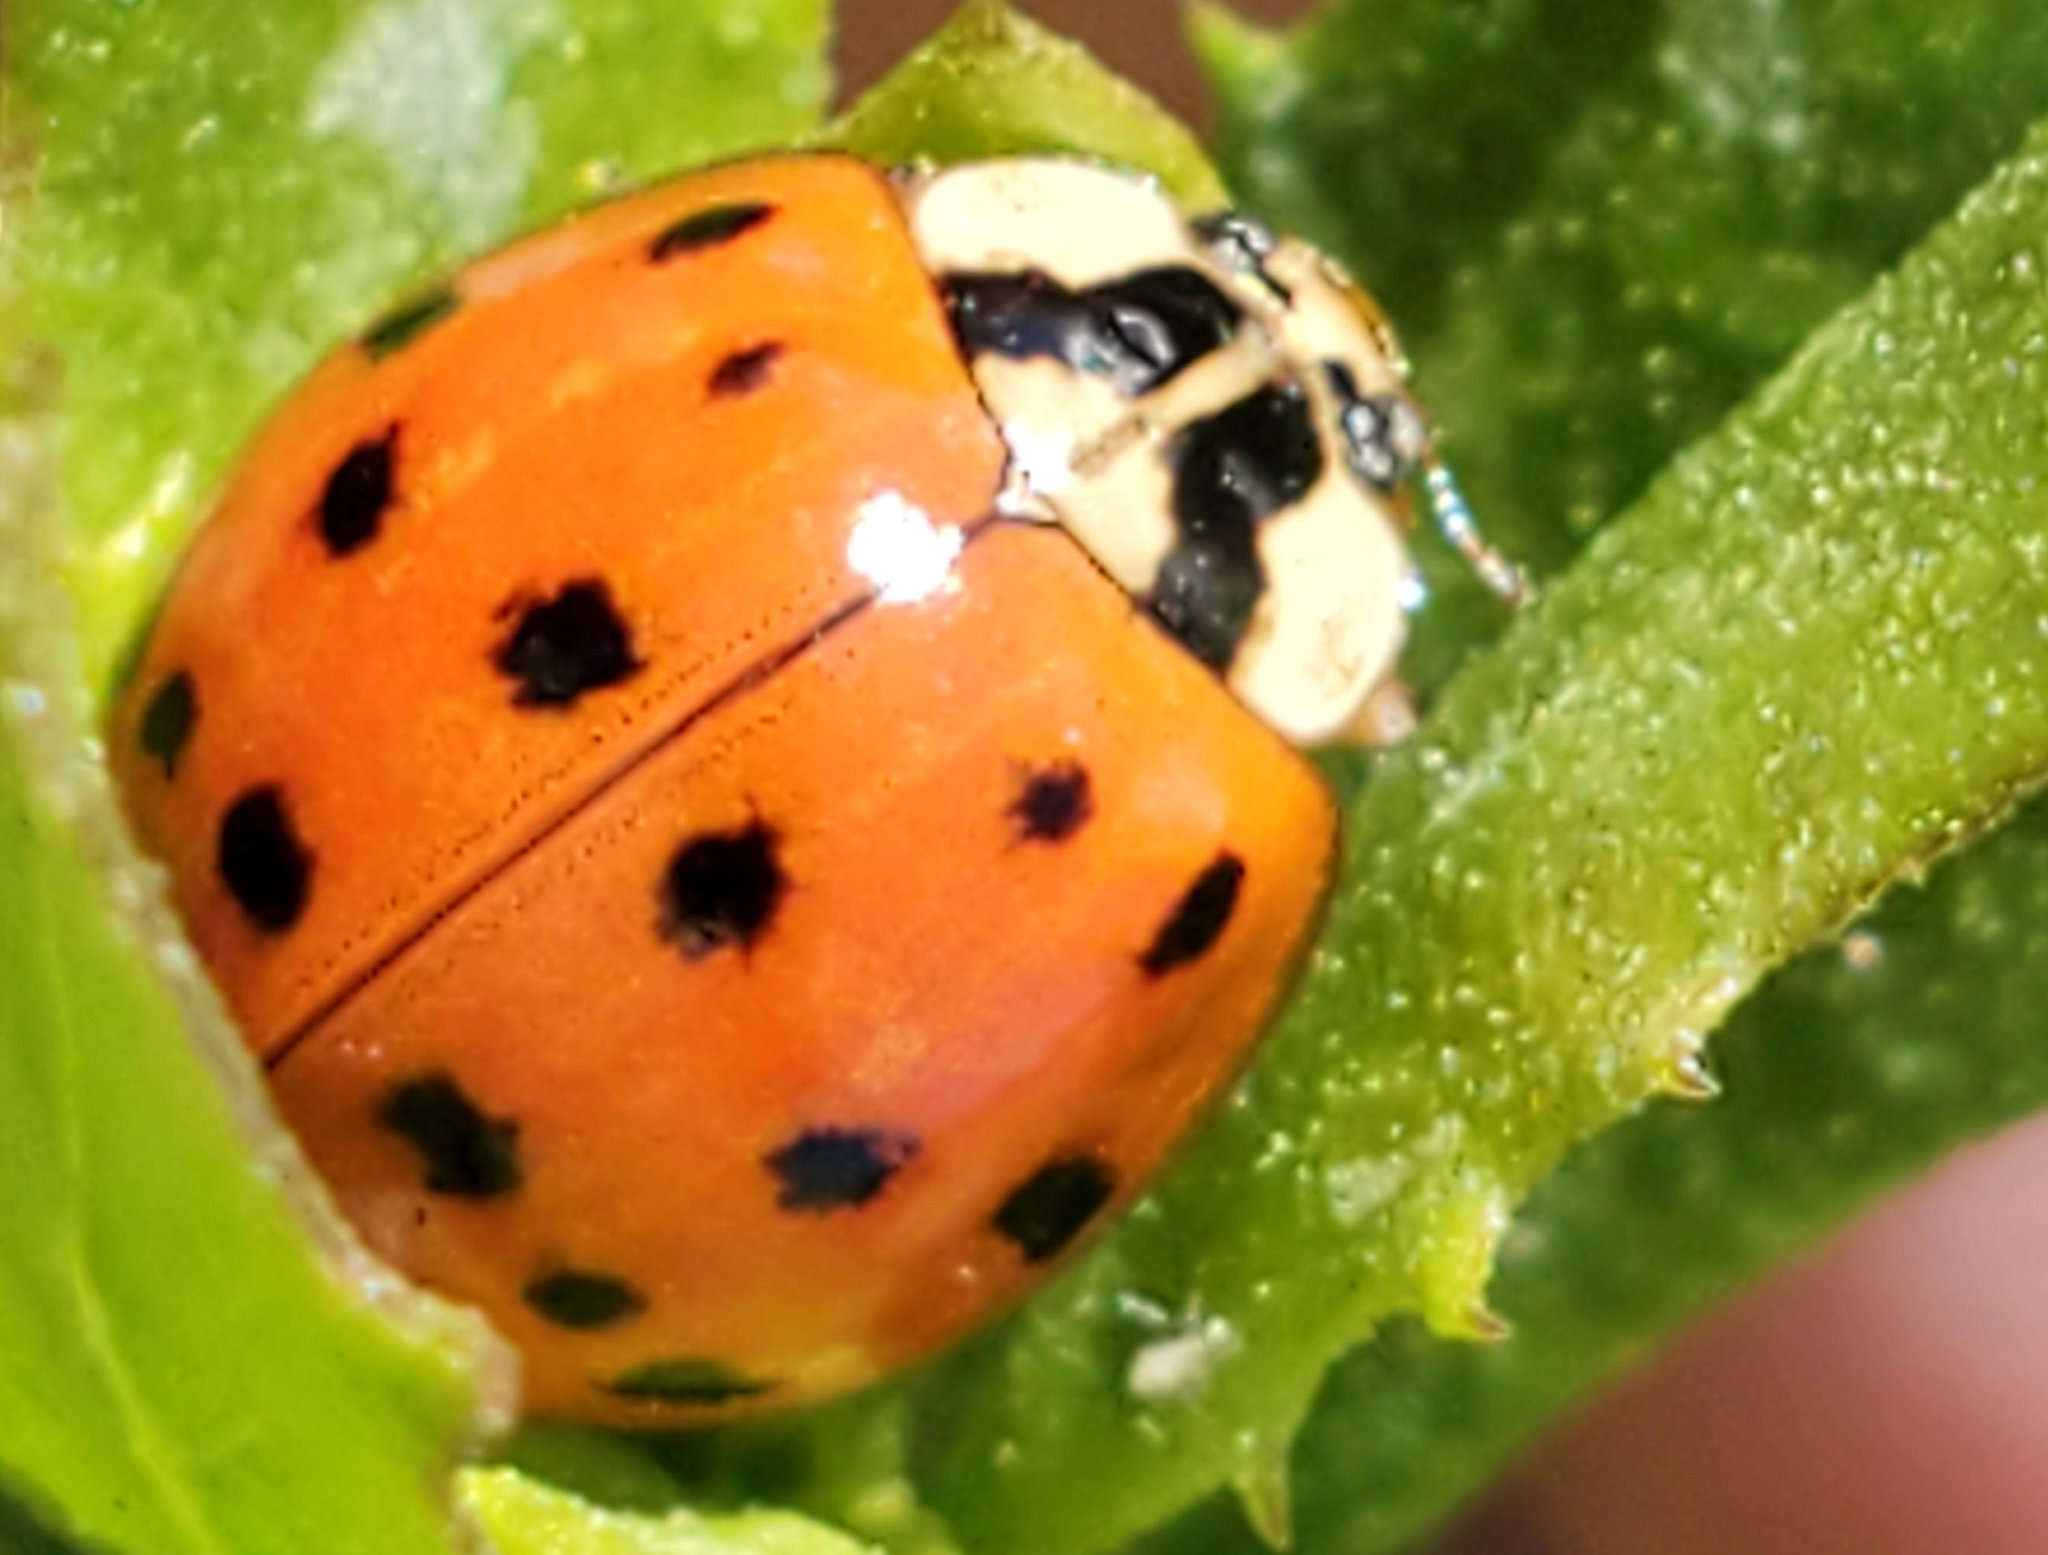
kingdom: Animalia
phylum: Arthropoda
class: Insecta
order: Coleoptera
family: Coccinellidae
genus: Harmonia
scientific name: Harmonia axyridis
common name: Harlequin ladybird
